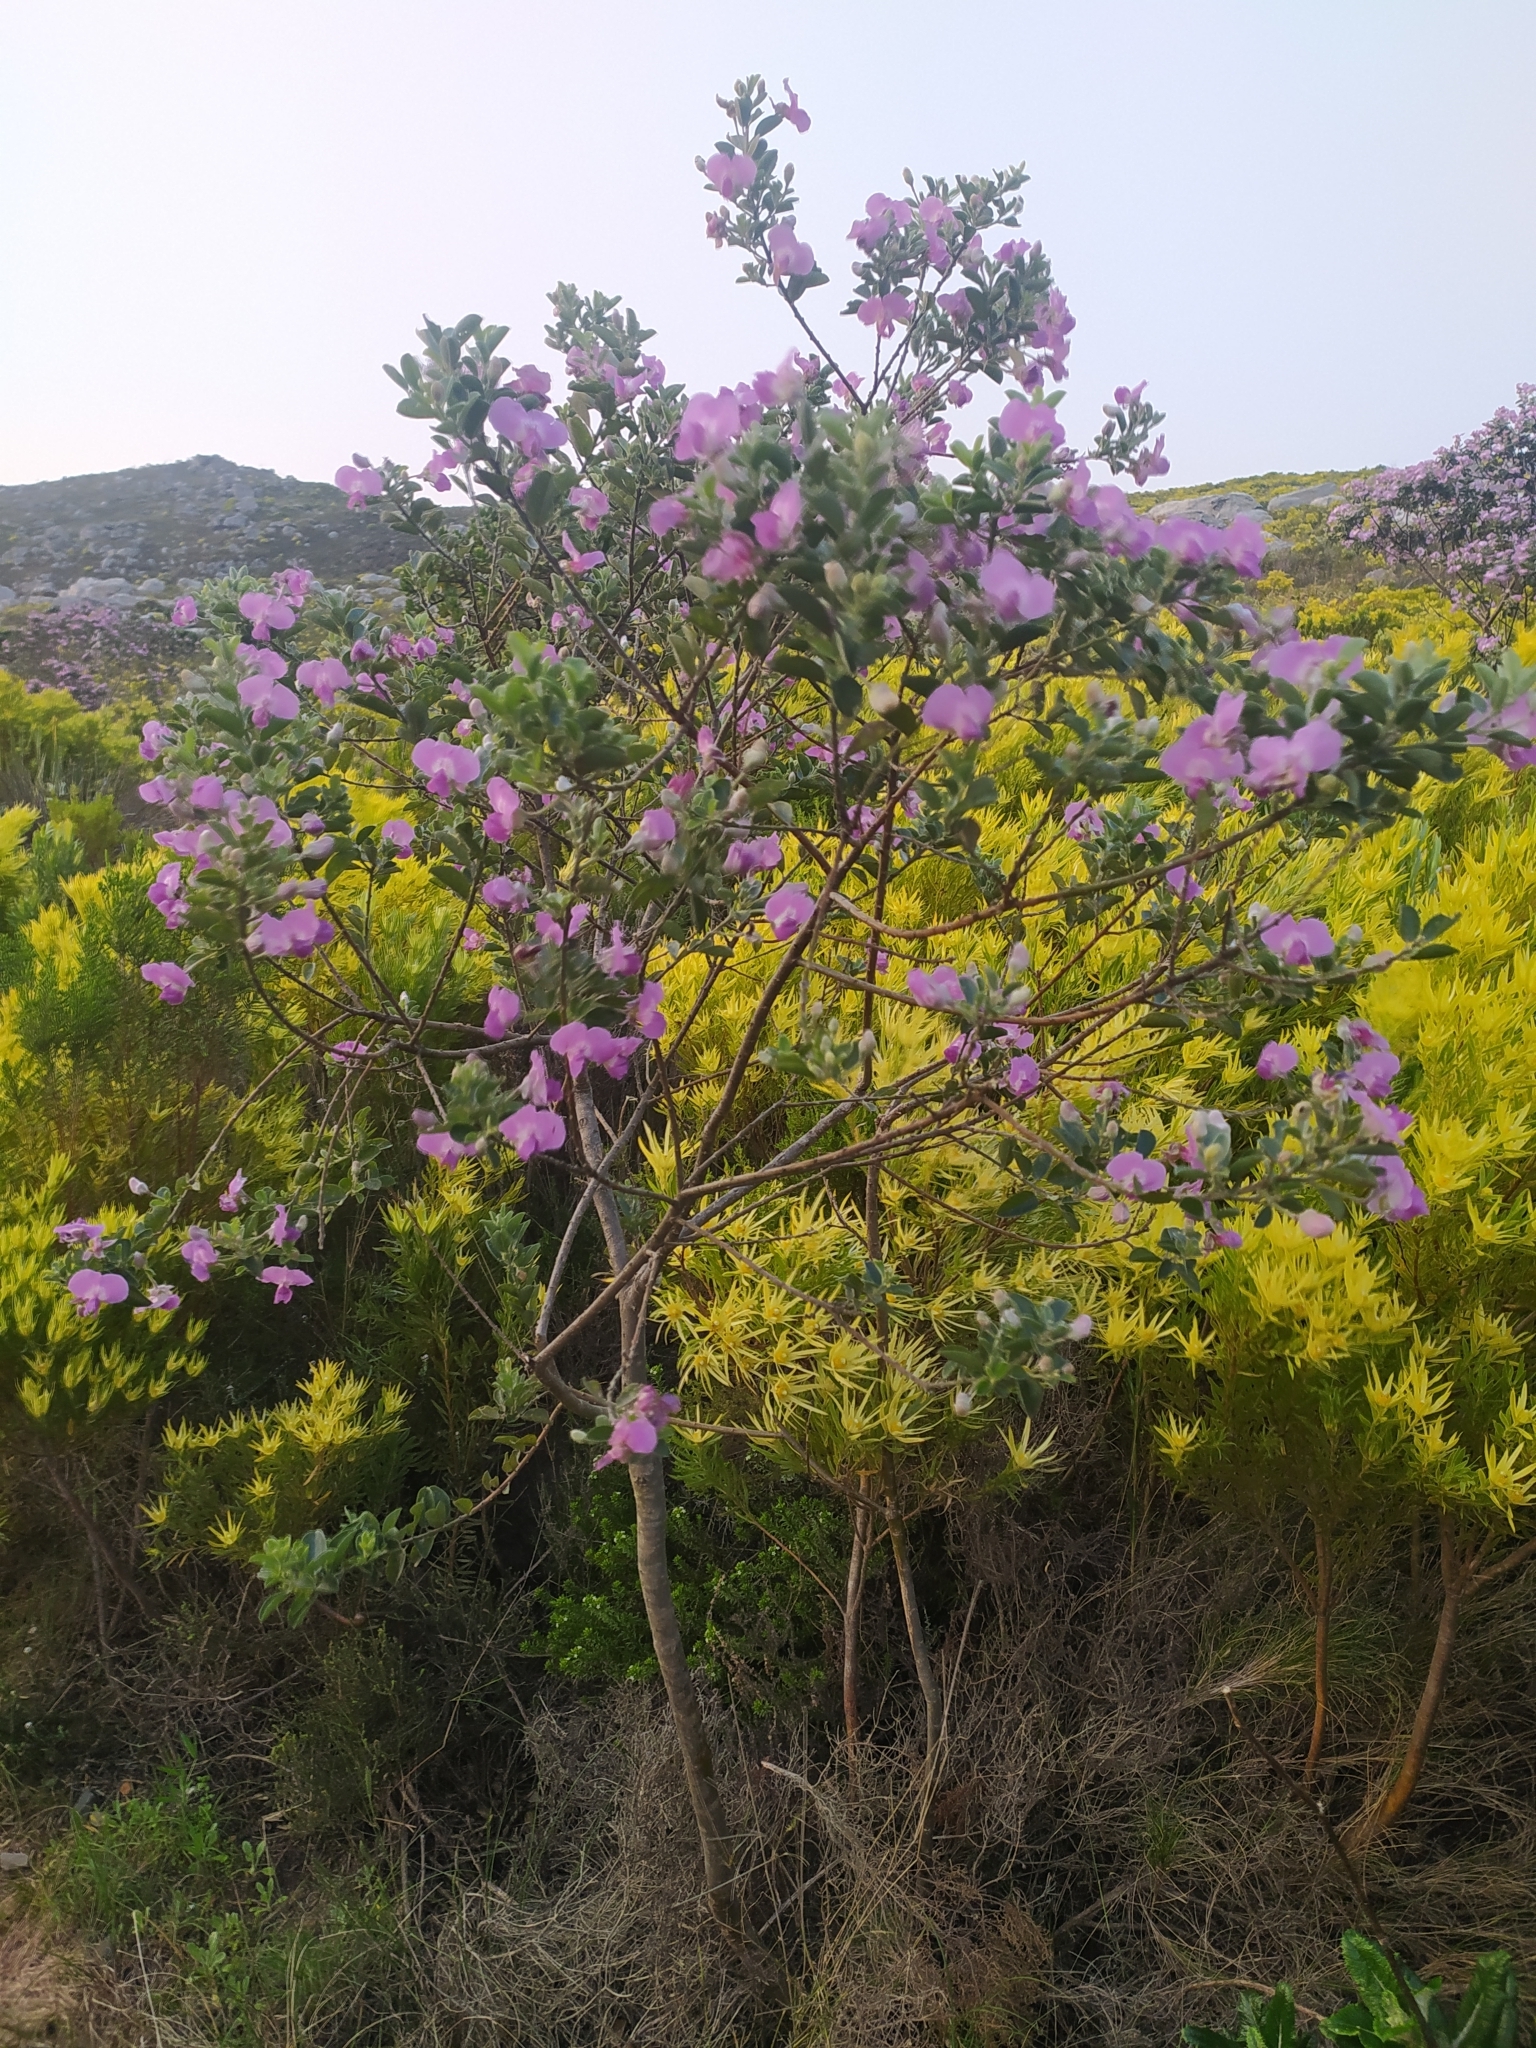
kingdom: Plantae
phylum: Tracheophyta
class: Magnoliopsida
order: Fabales
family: Fabaceae
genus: Podalyria
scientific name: Podalyria calyptrata
